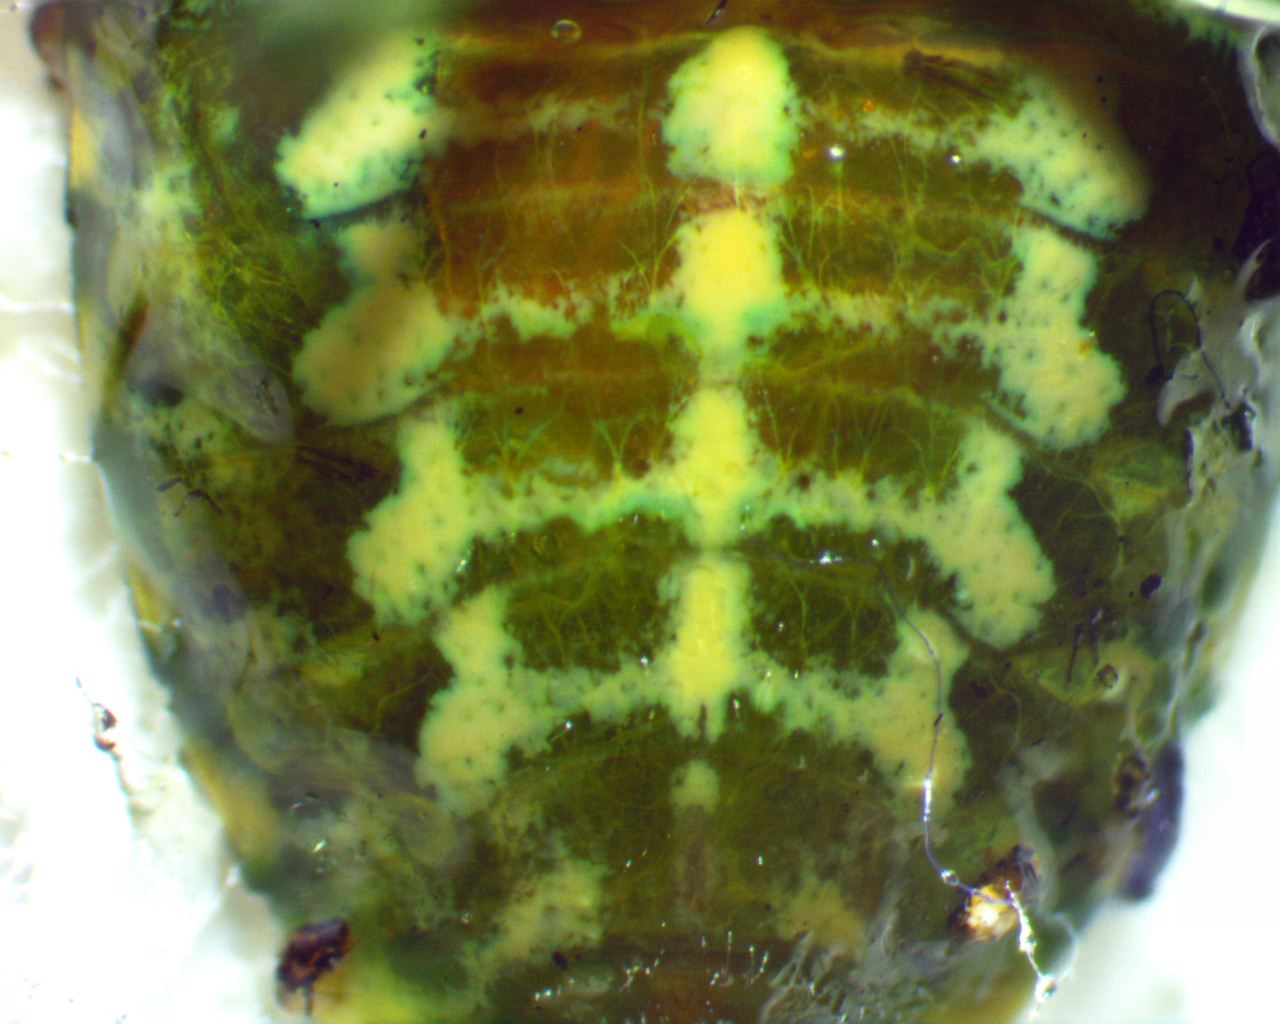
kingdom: Animalia
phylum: Arthropoda
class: Insecta
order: Hemiptera
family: Pentatomidae
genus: Banasa
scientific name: Banasa euchlora
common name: Cedar berry bug
